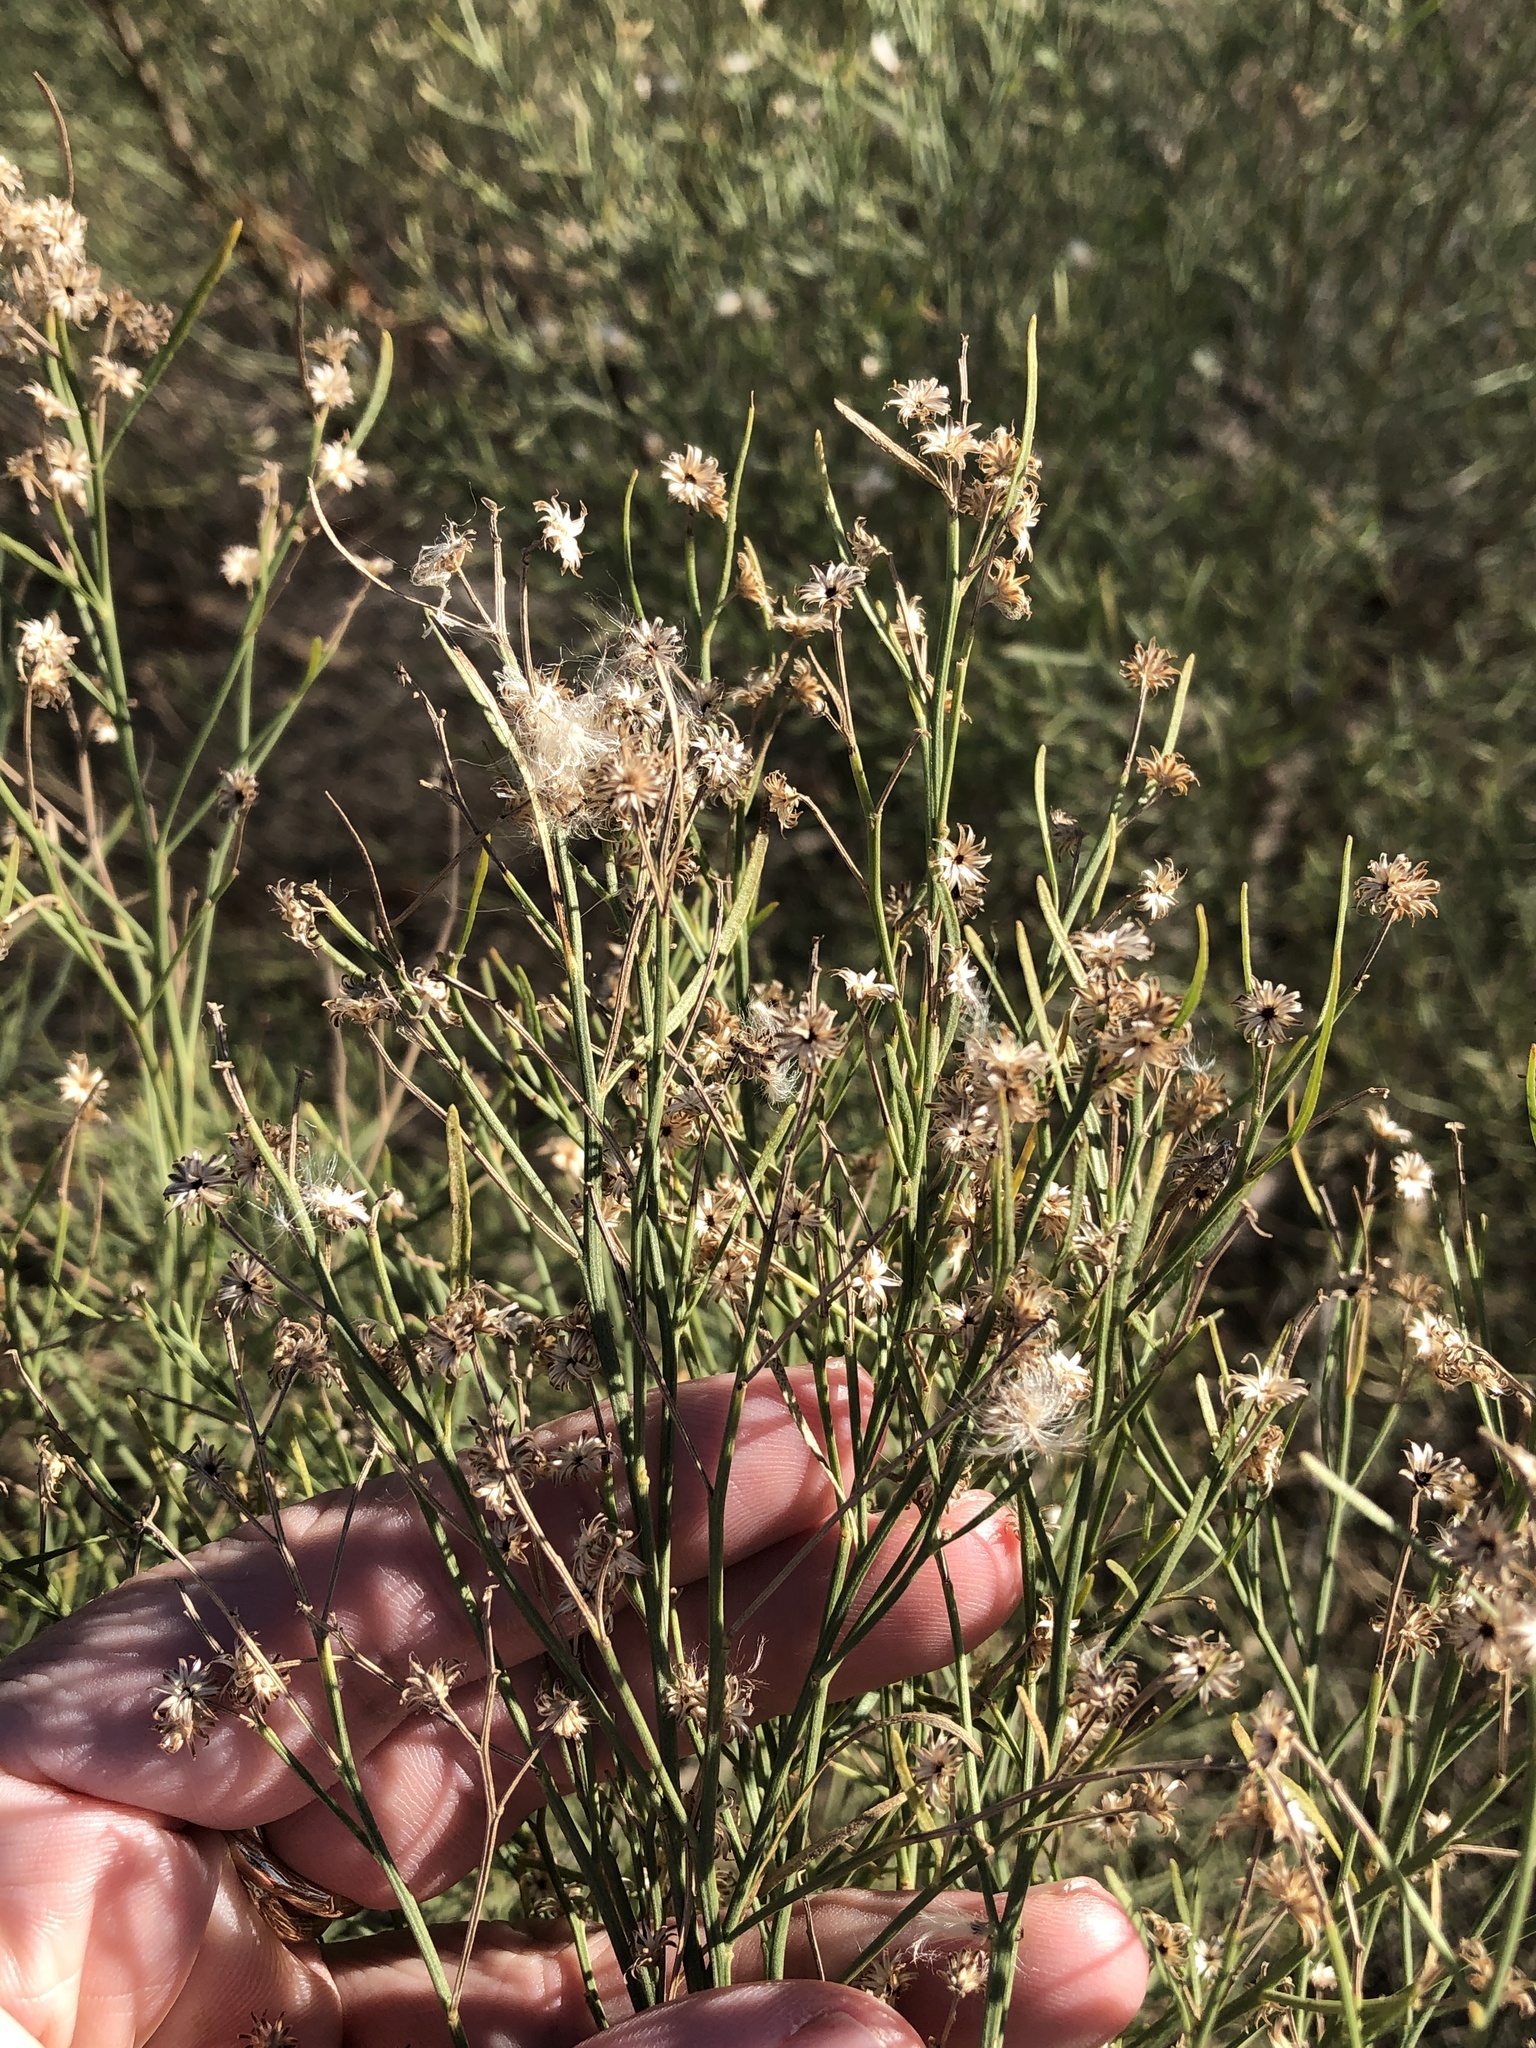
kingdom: Plantae
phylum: Tracheophyta
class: Magnoliopsida
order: Asterales
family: Asteraceae
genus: Baccharis
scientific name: Baccharis neglecta
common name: Roosevelt-weed
